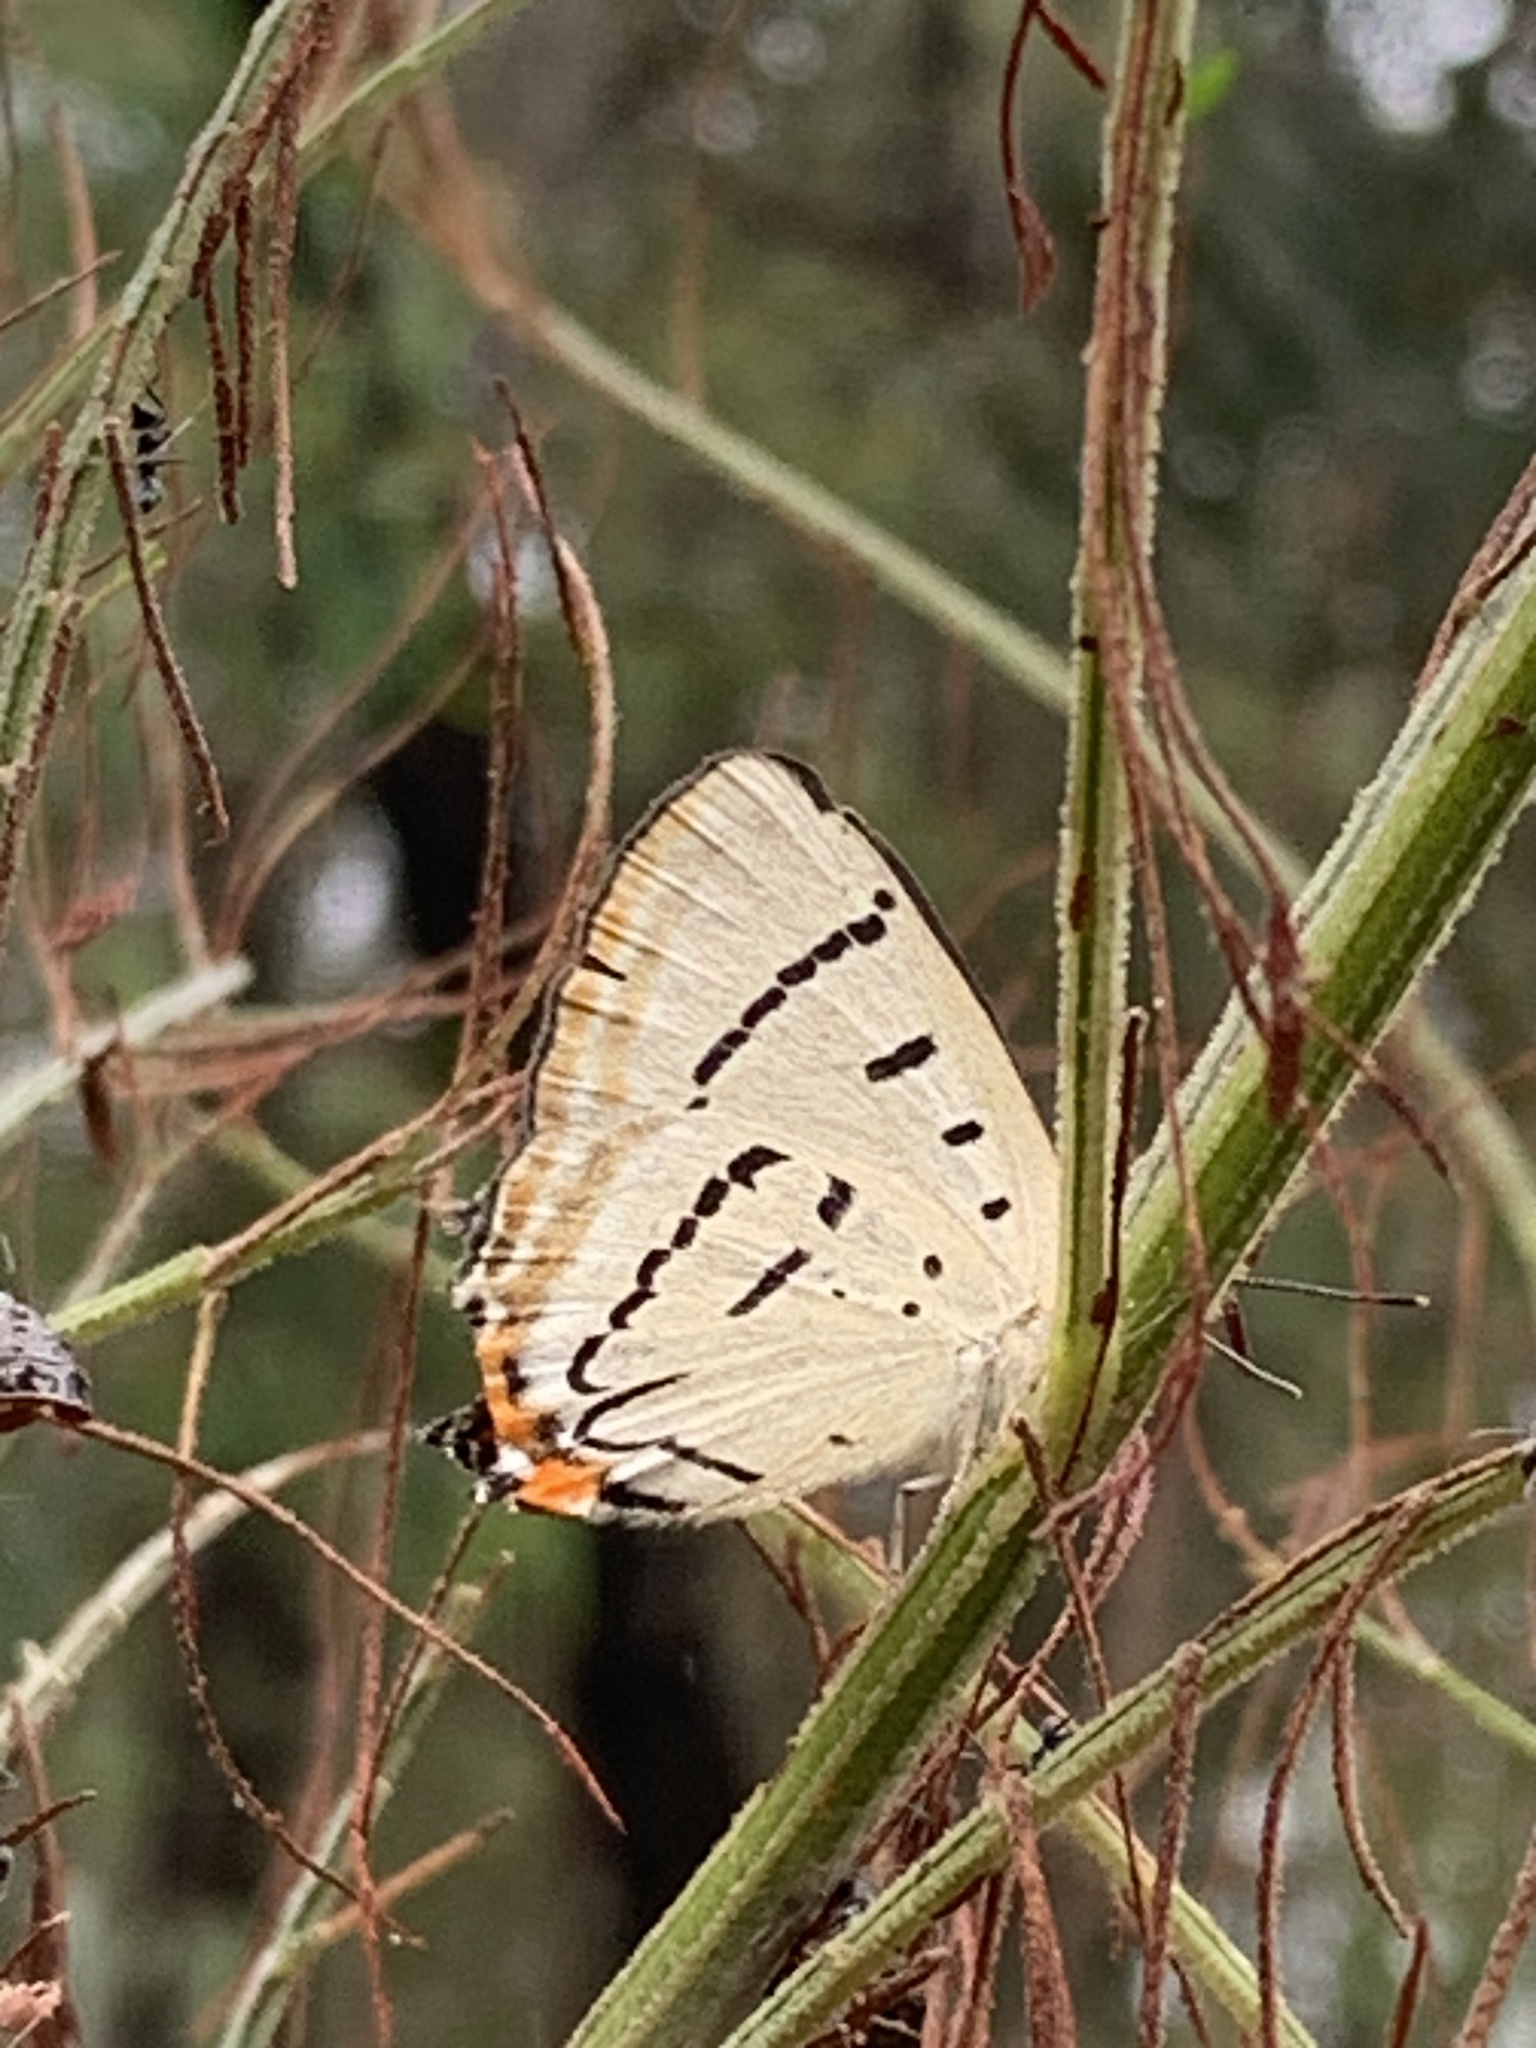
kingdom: Animalia
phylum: Arthropoda
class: Insecta
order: Lepidoptera
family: Lycaenidae
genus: Jalmenus
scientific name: Jalmenus evagoras
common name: Common imperial blue
